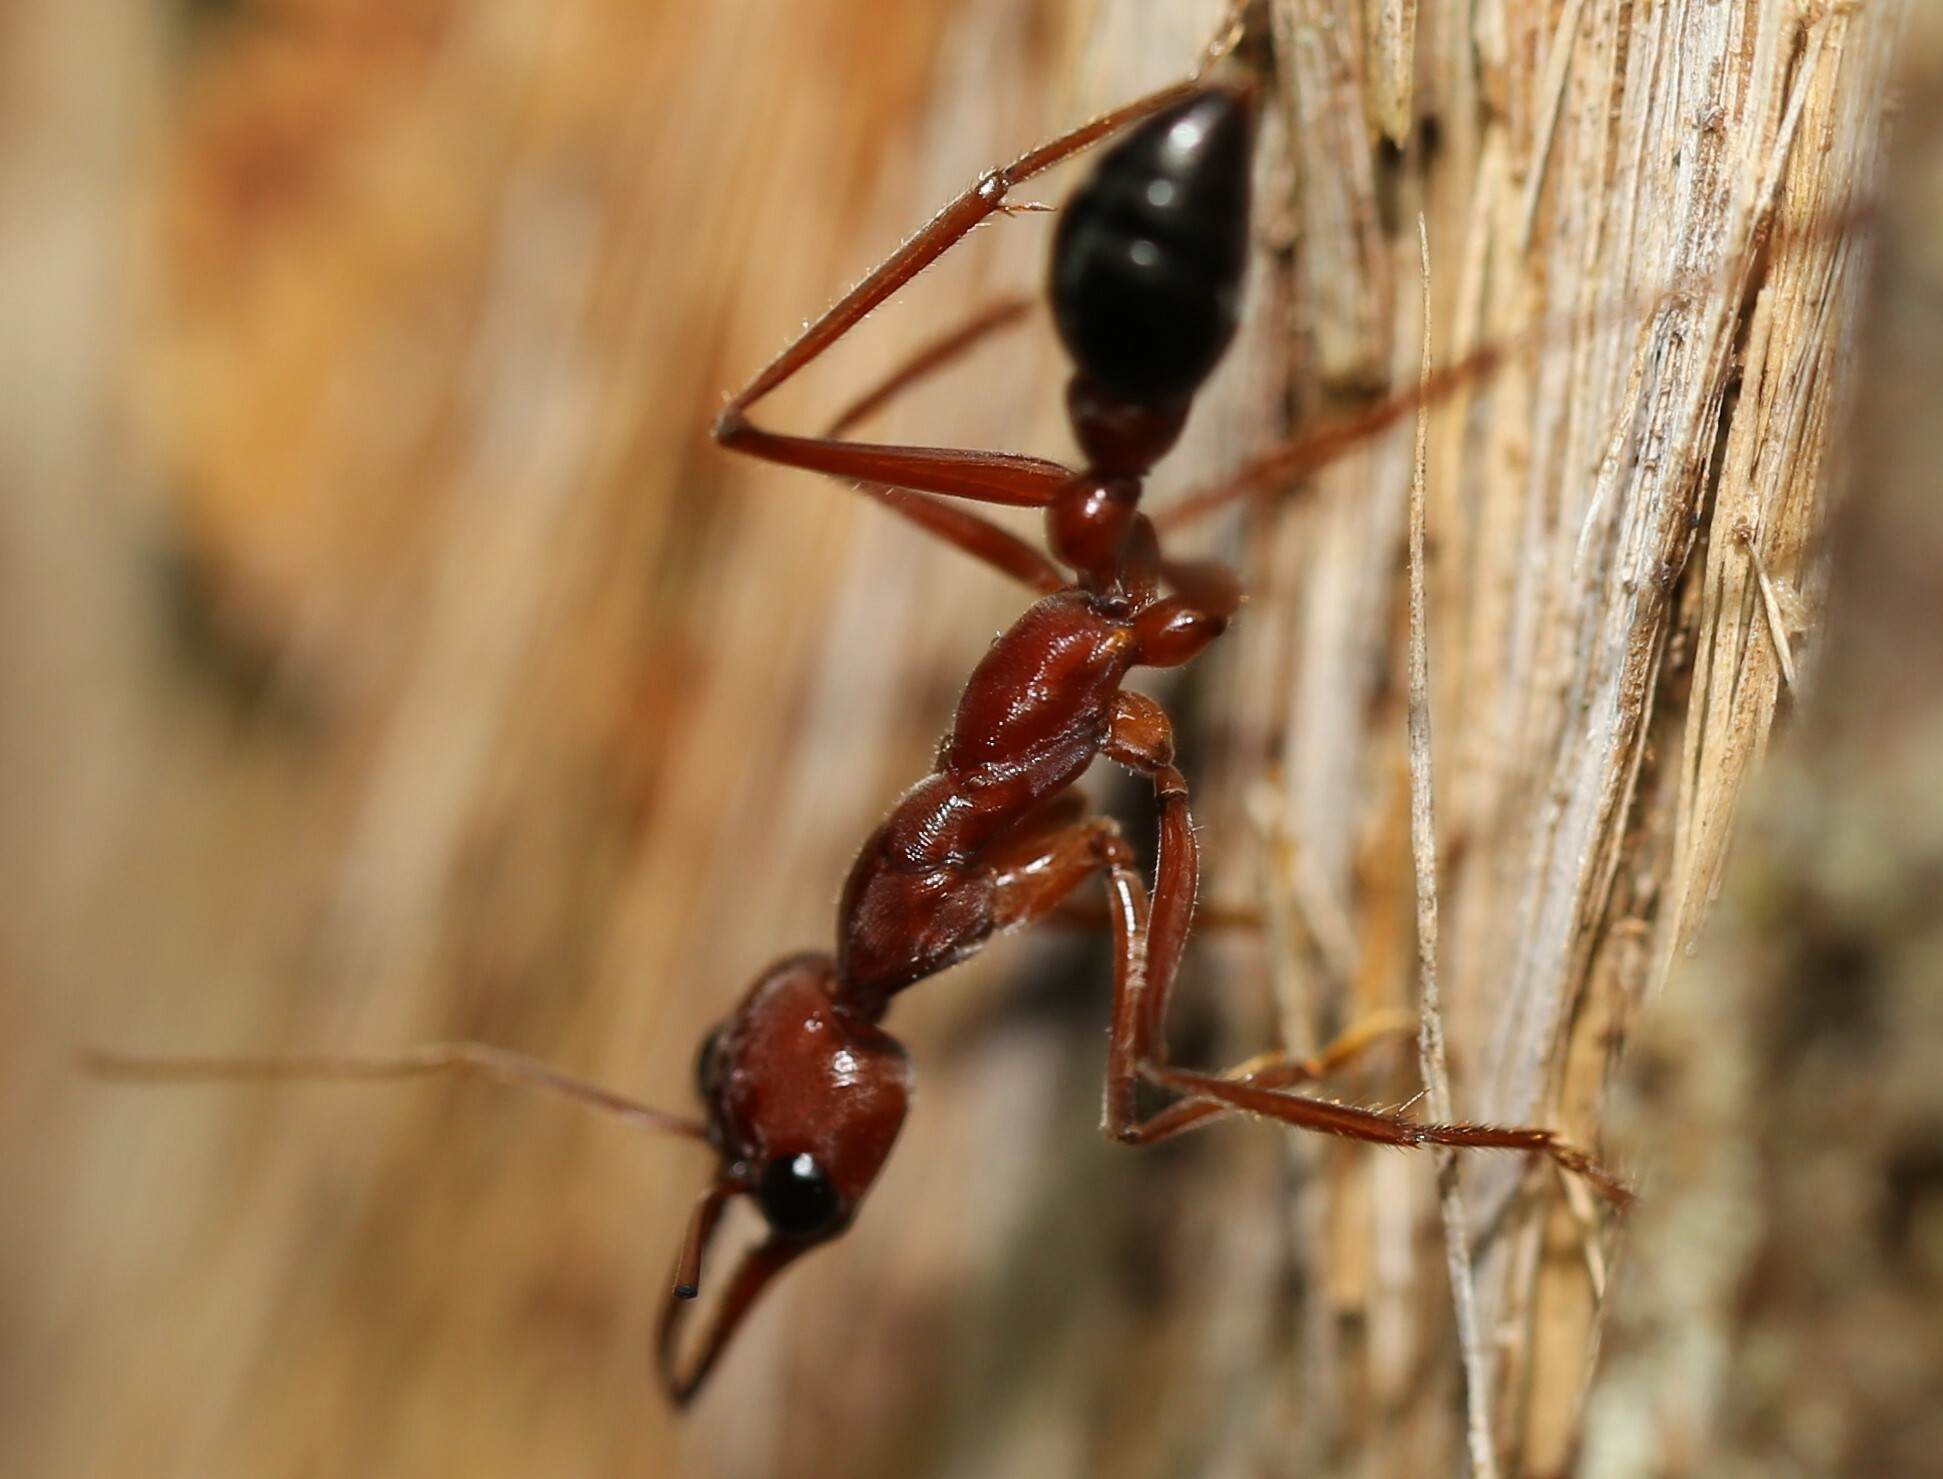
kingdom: Animalia
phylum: Arthropoda
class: Insecta
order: Hymenoptera
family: Formicidae
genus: Myrmecia
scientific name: Myrmecia brevinoda
